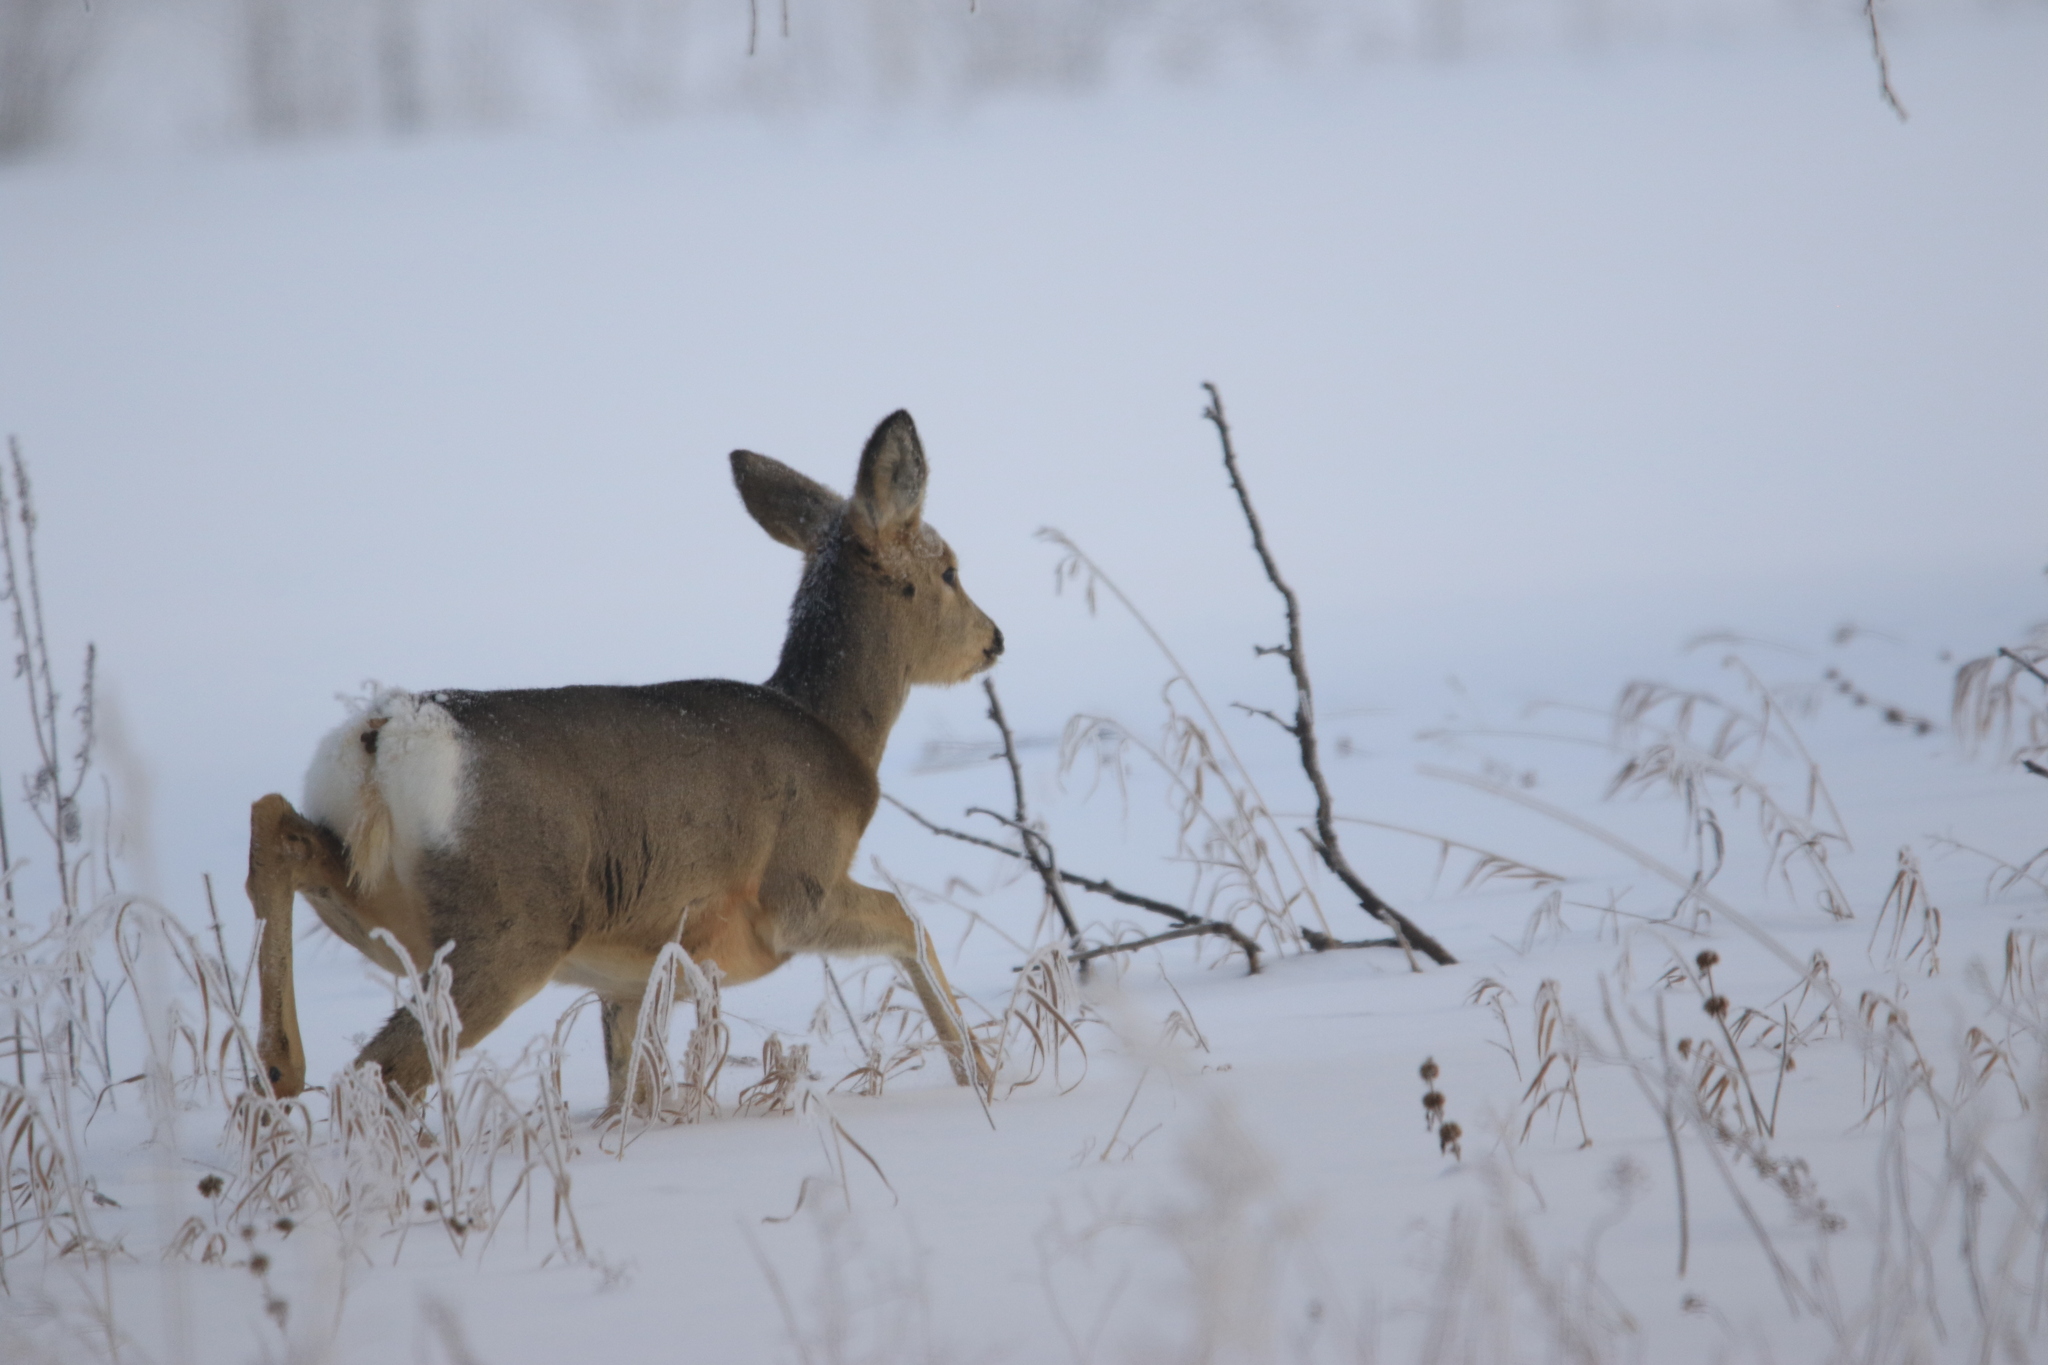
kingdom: Animalia
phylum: Chordata
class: Mammalia
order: Artiodactyla
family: Cervidae
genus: Capreolus
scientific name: Capreolus pygargus
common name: Siberian roe
